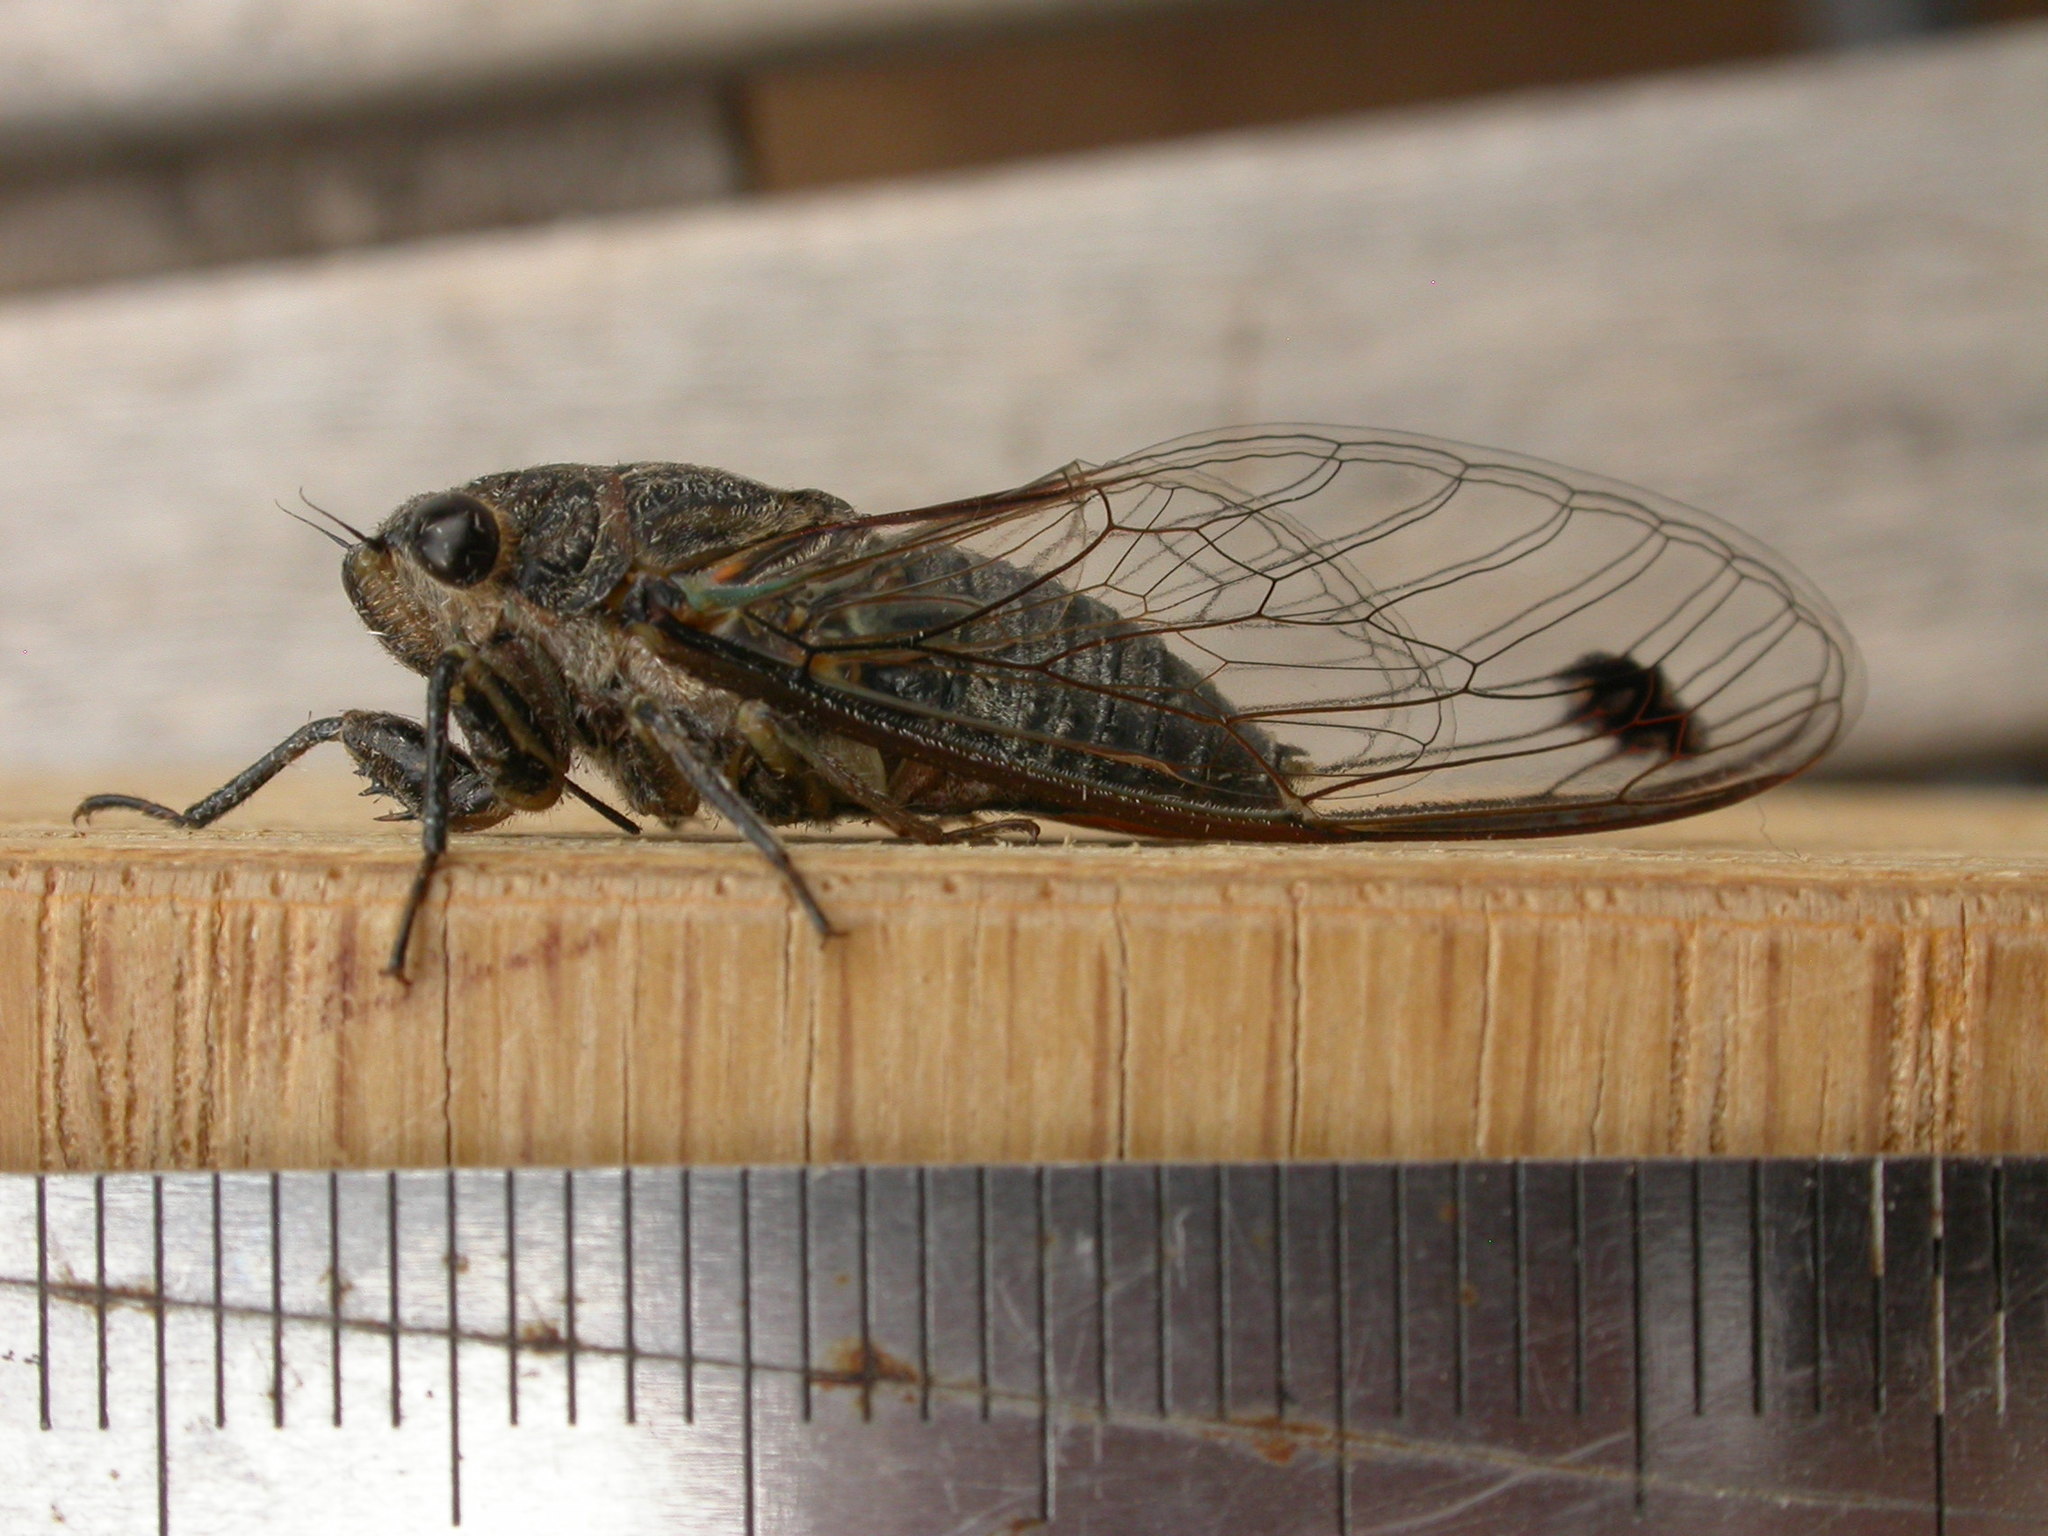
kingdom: Animalia
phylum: Arthropoda
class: Insecta
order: Hemiptera
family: Cicadidae
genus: Galanga
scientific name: Galanga labeculata
